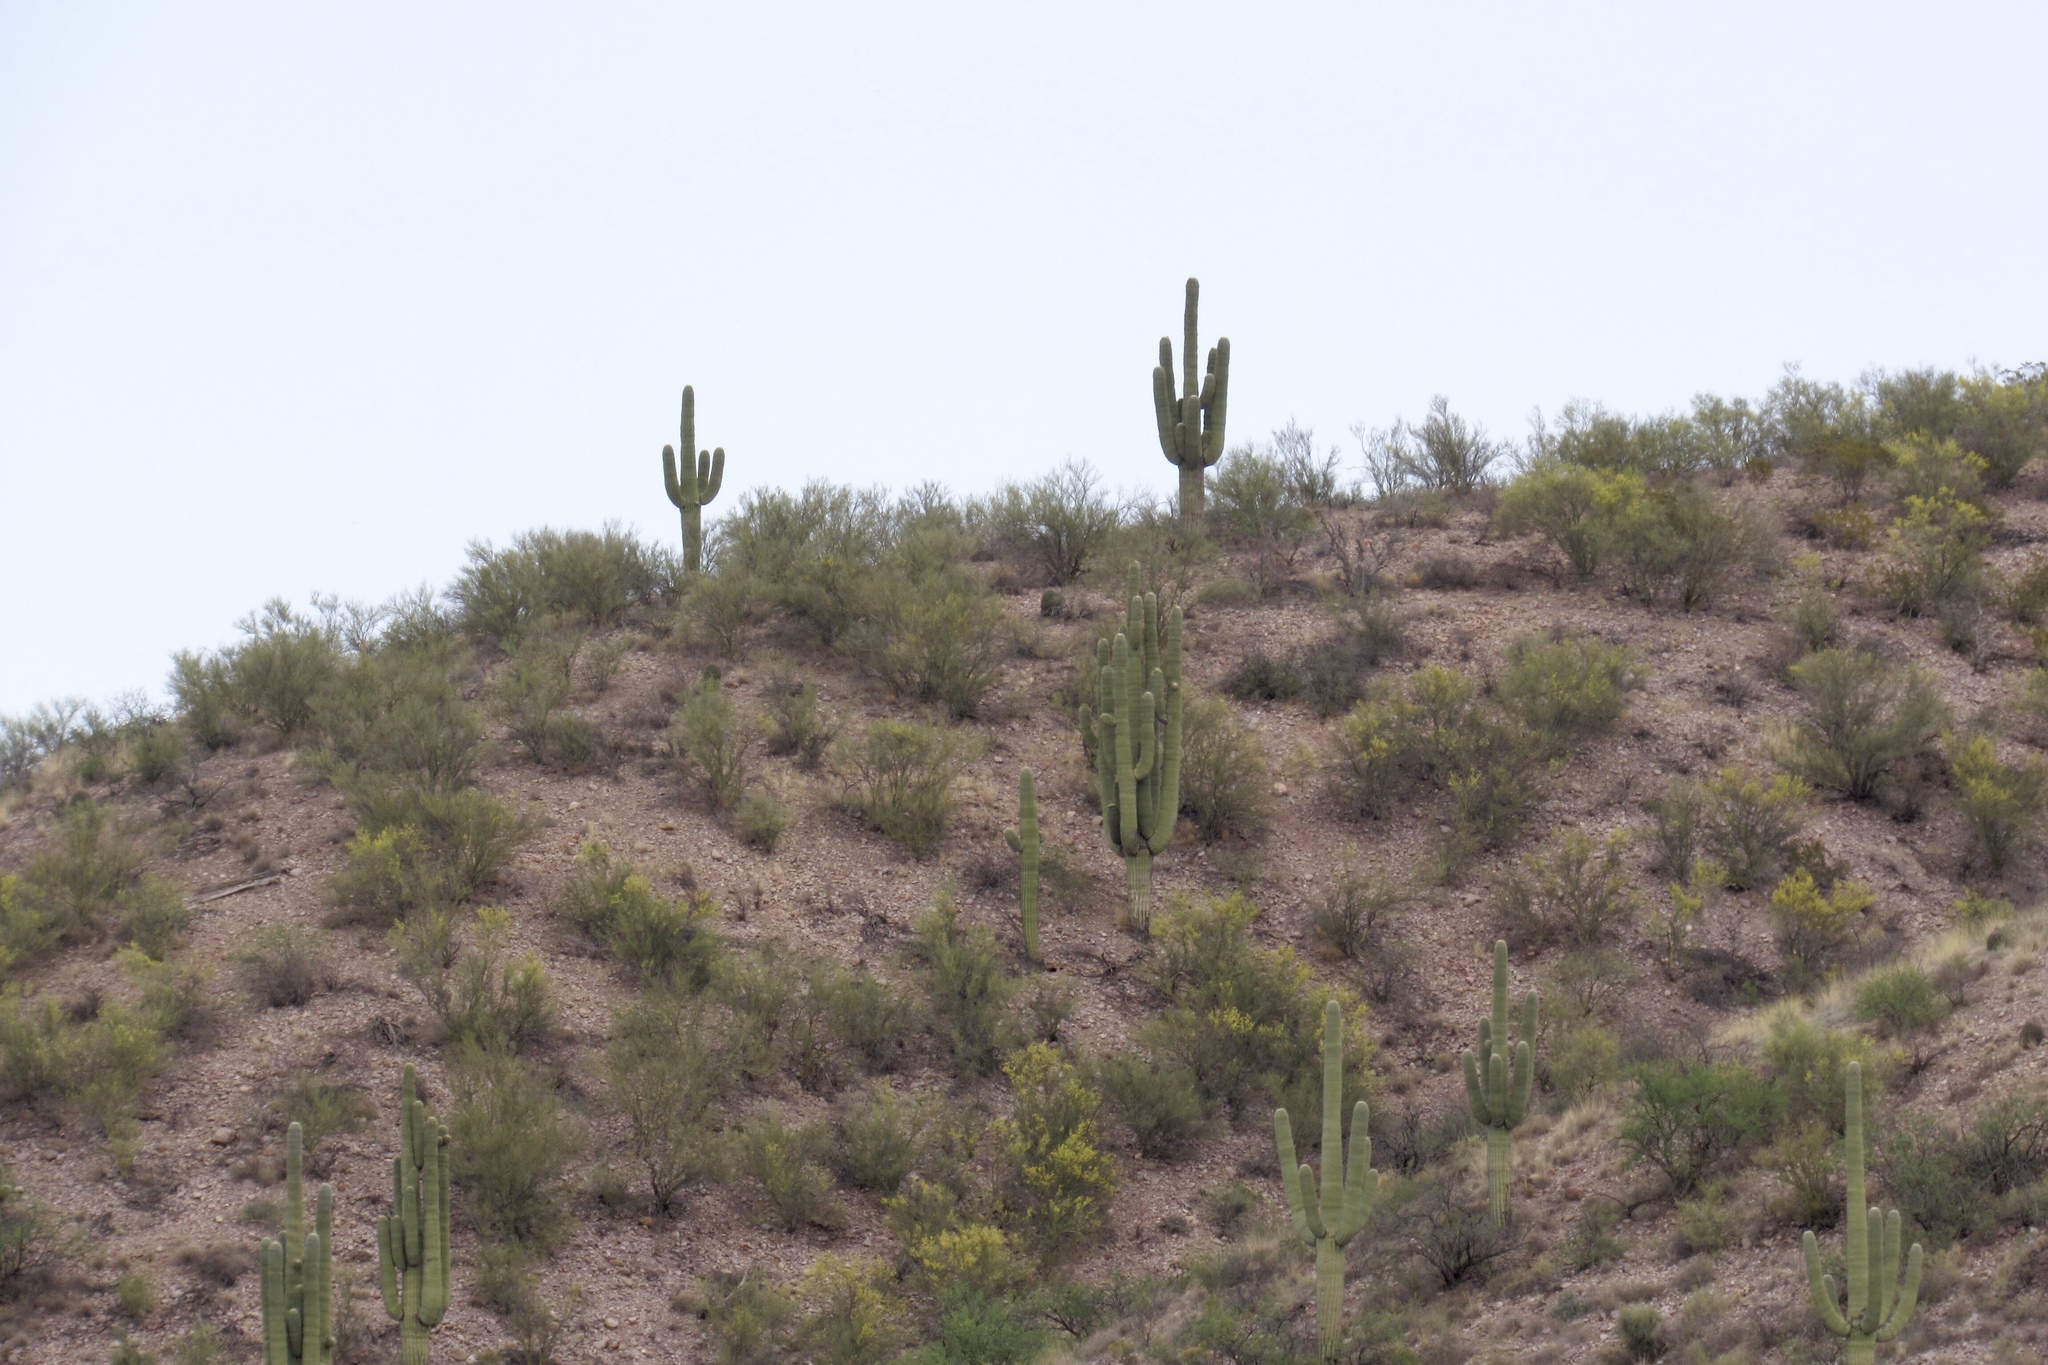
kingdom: Plantae
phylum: Tracheophyta
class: Magnoliopsida
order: Caryophyllales
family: Cactaceae
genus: Carnegiea
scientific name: Carnegiea gigantea
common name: Saguaro
